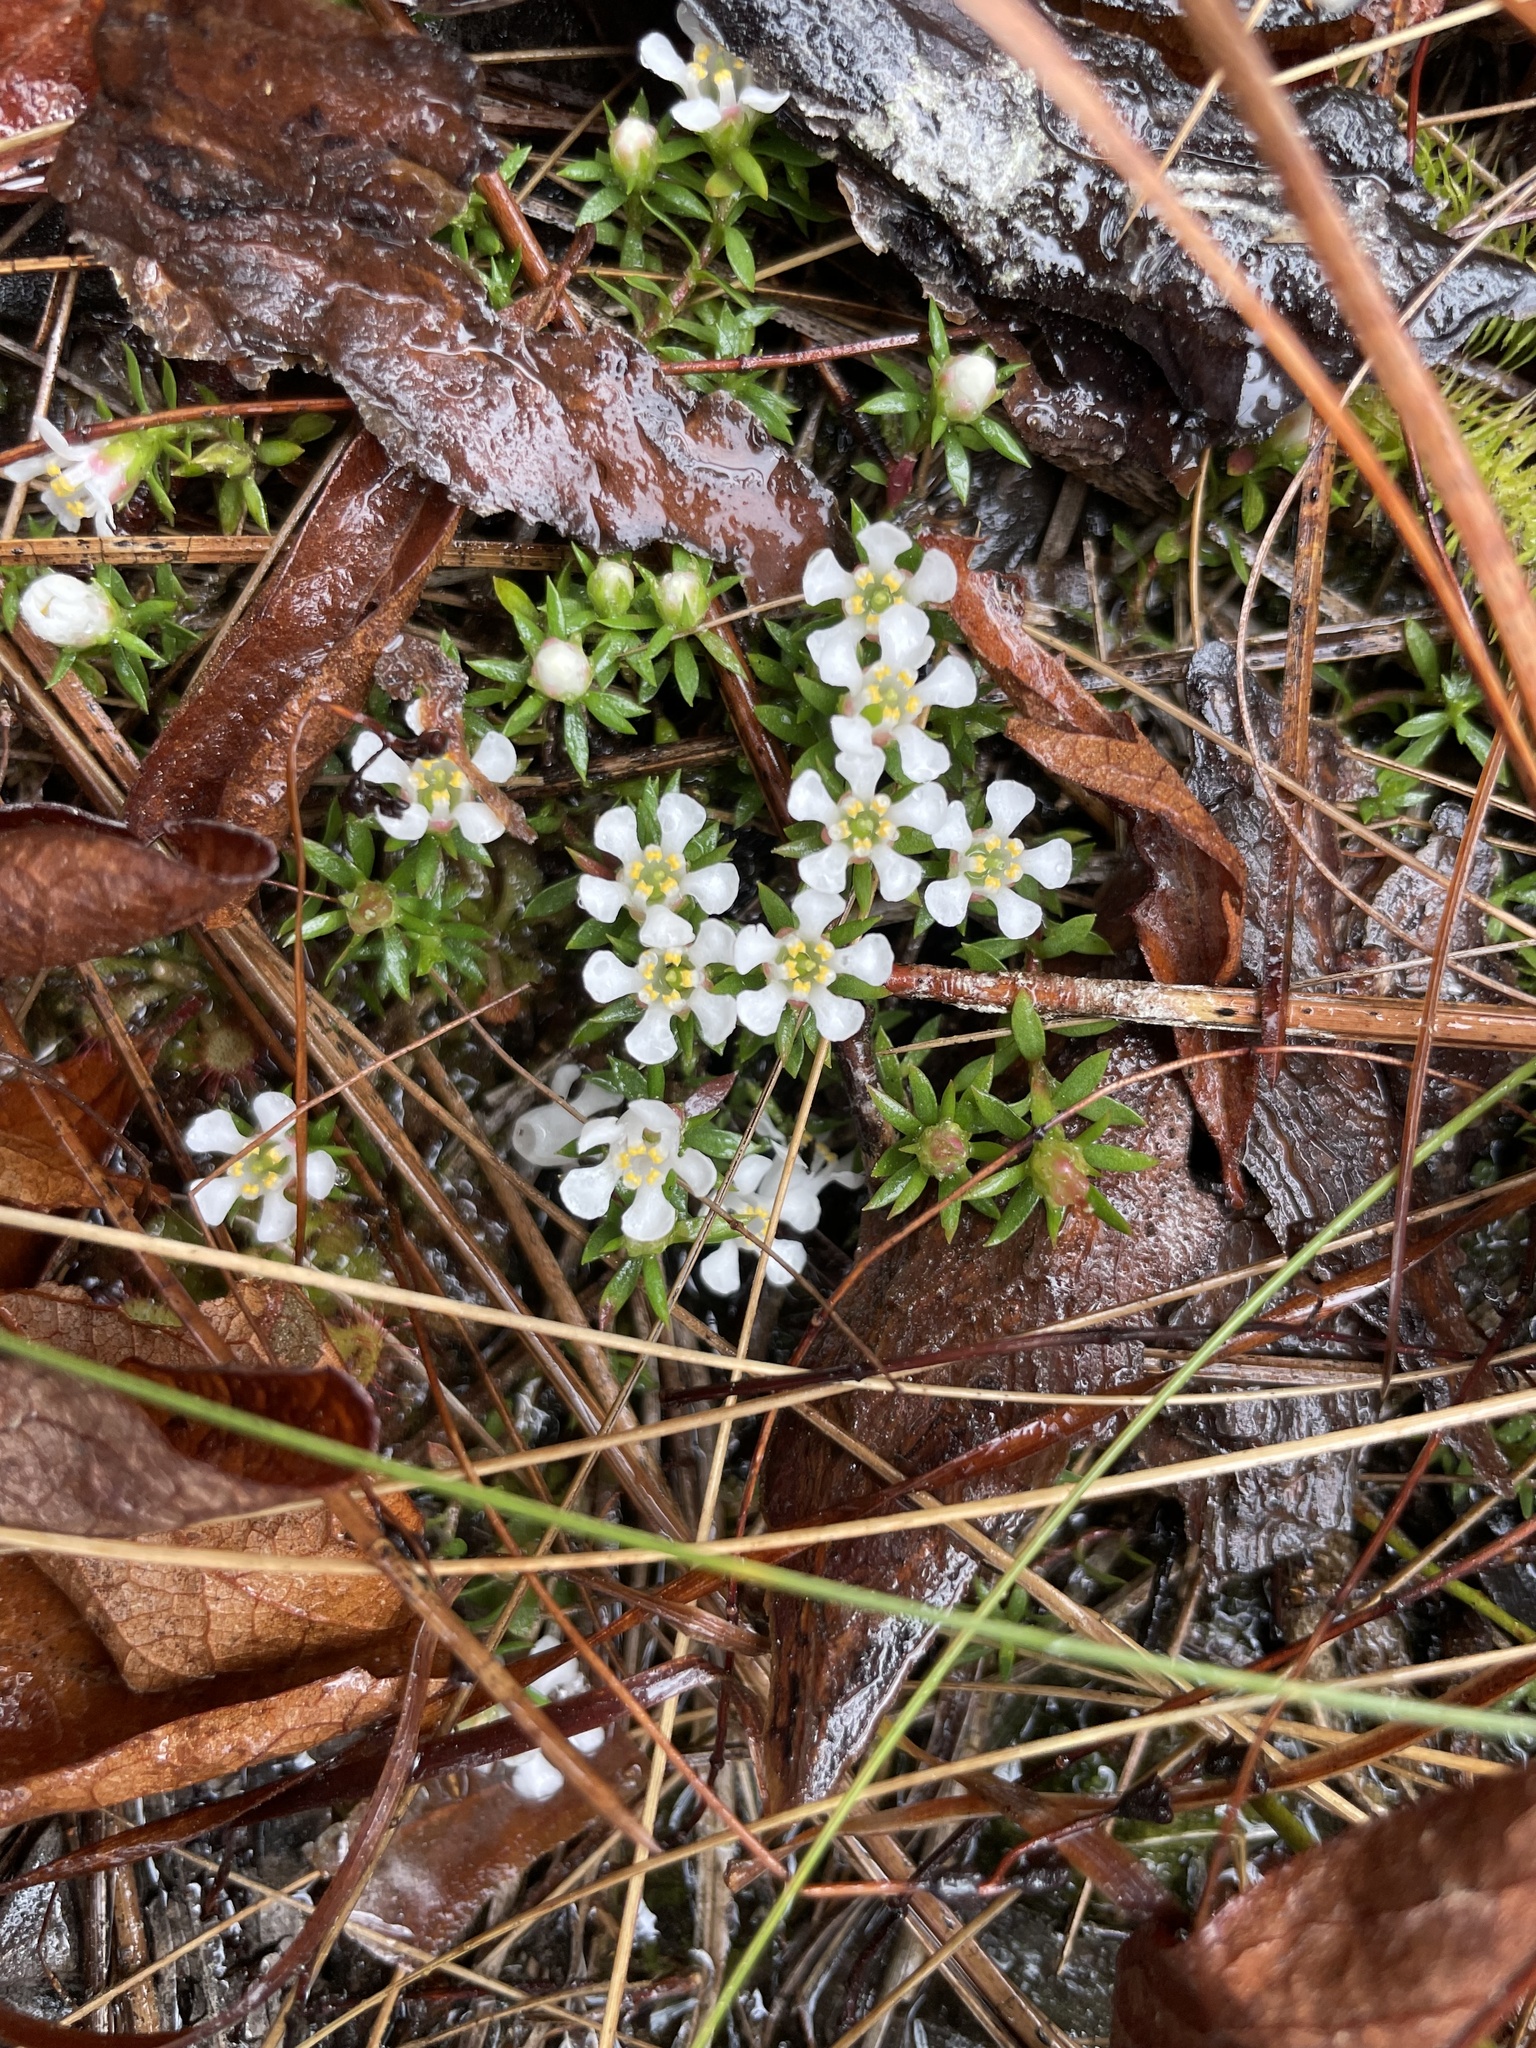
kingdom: Plantae
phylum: Tracheophyta
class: Magnoliopsida
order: Ericales
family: Diapensiaceae
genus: Pyxidanthera
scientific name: Pyxidanthera barbulata
